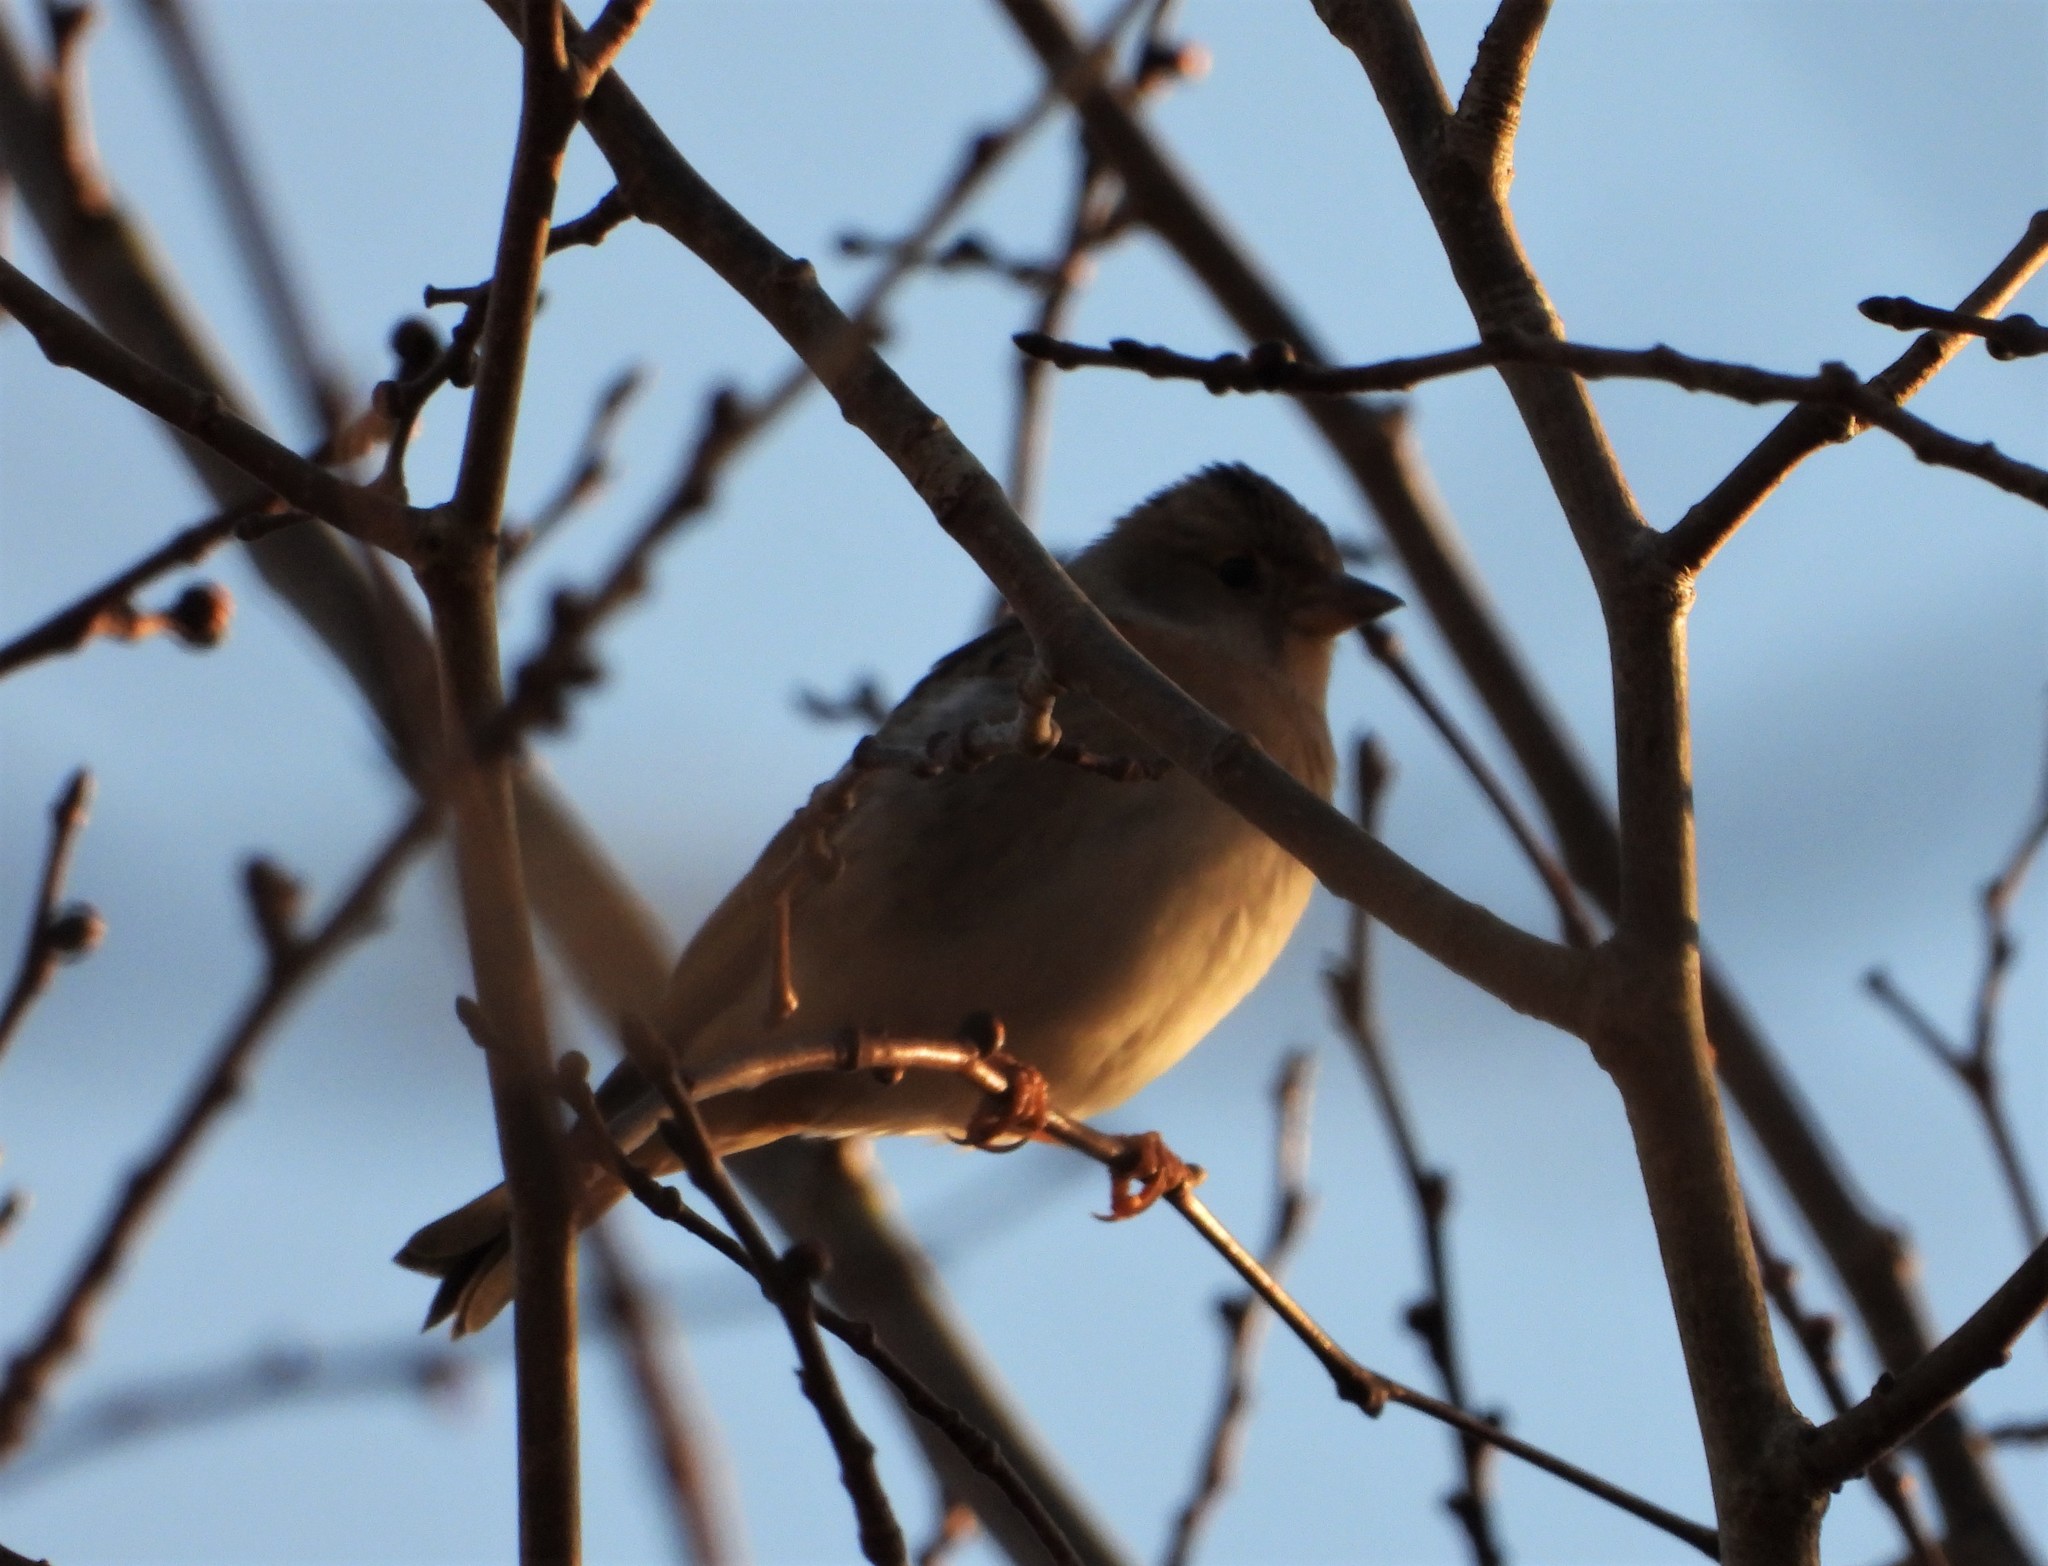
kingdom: Animalia
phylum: Chordata
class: Aves
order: Passeriformes
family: Fringillidae
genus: Fringilla
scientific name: Fringilla montifringilla
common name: Brambling
